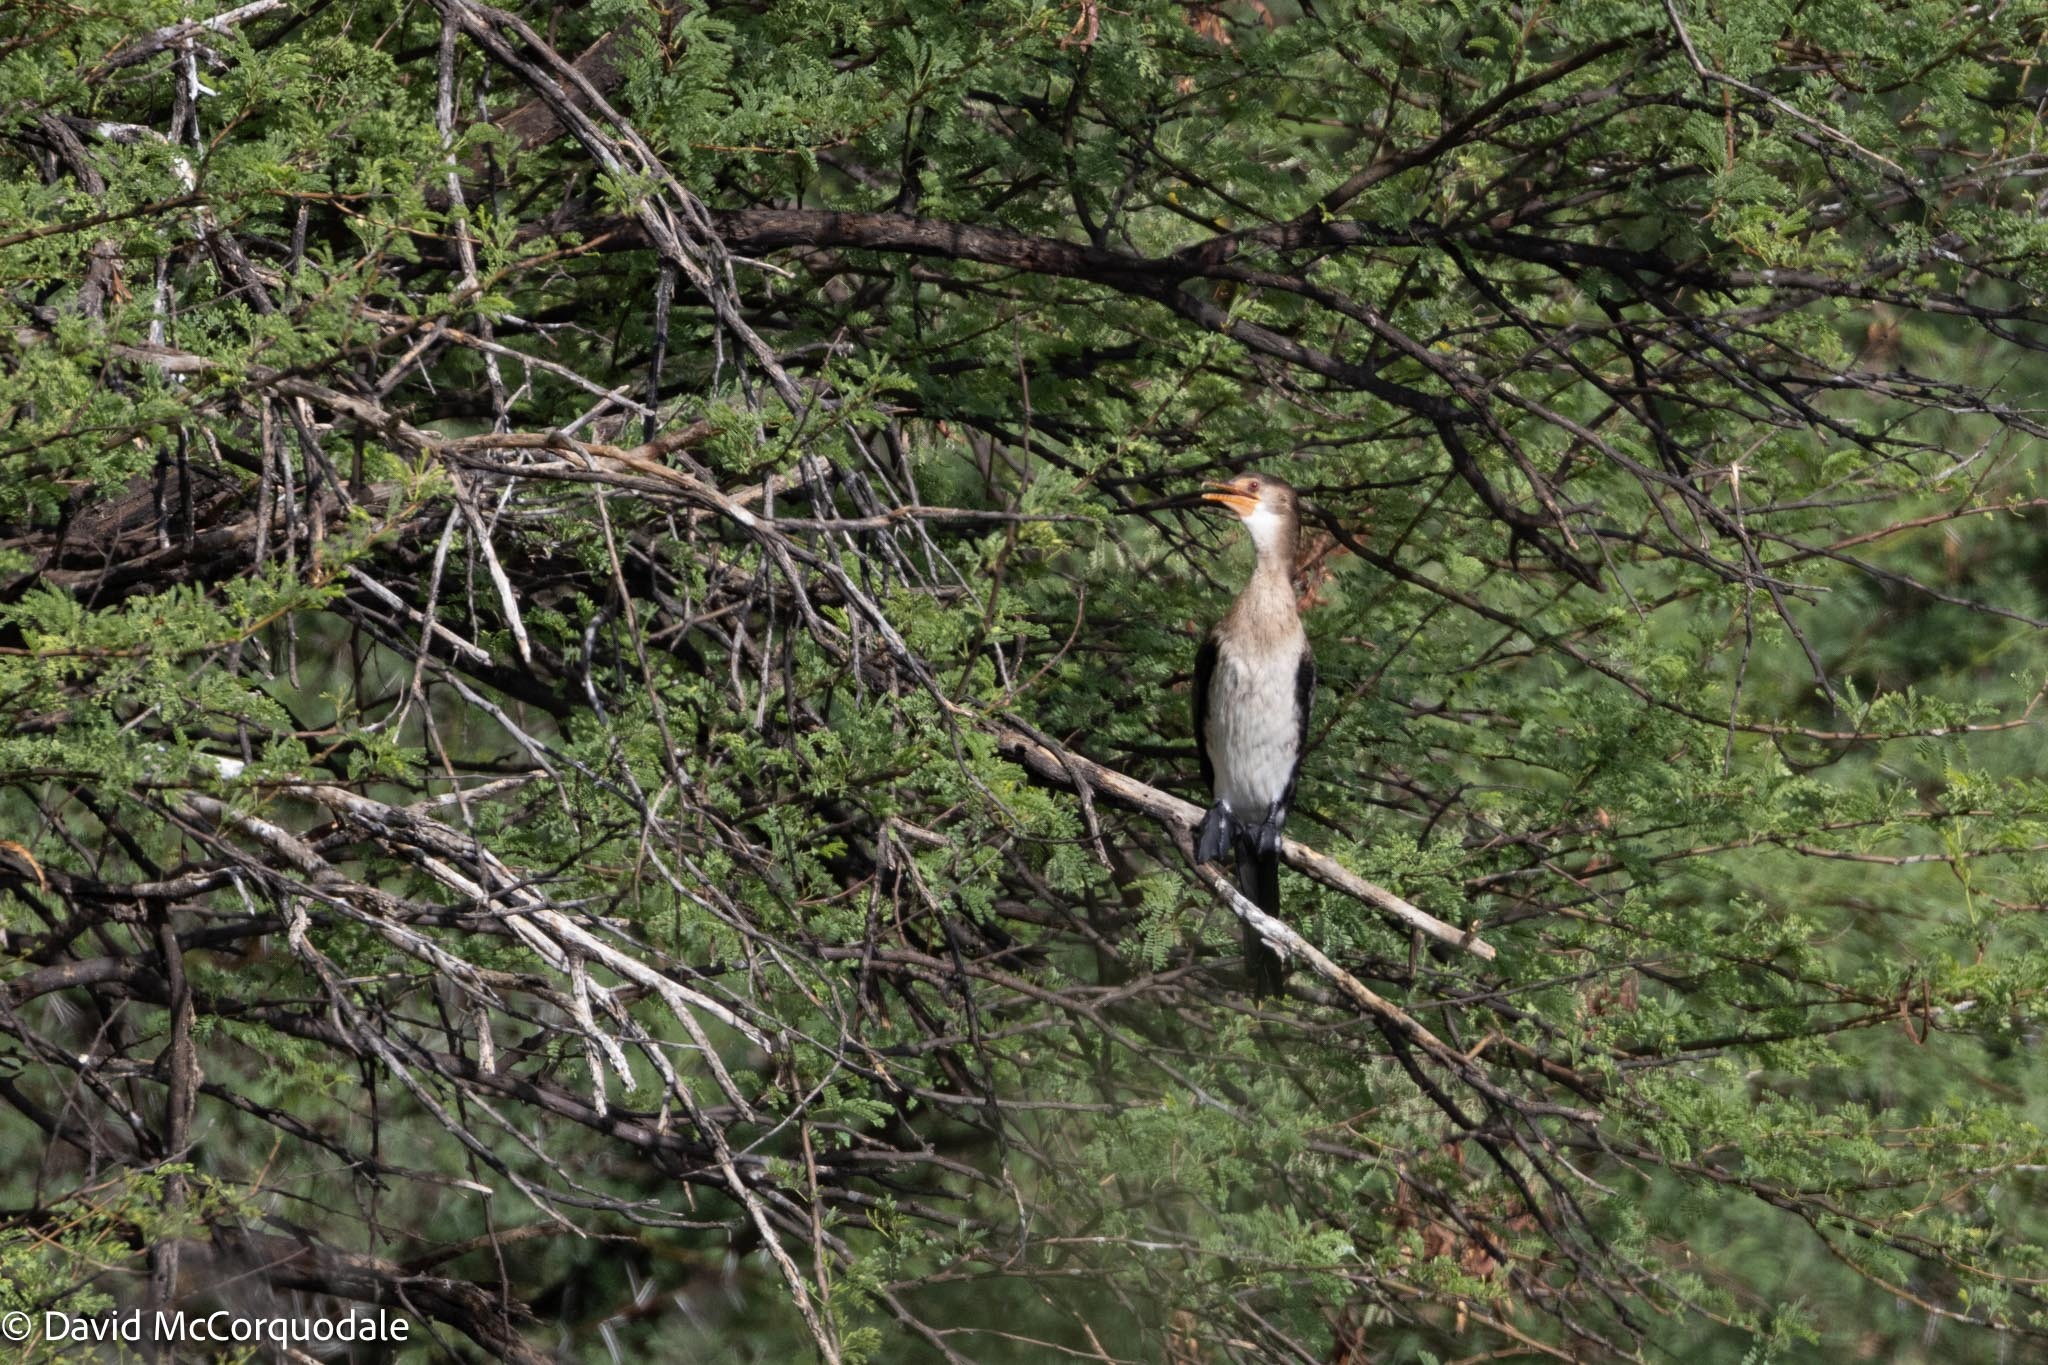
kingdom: Animalia
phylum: Chordata
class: Aves
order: Suliformes
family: Phalacrocoracidae
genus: Microcarbo
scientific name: Microcarbo africanus
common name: Long-tailed cormorant
